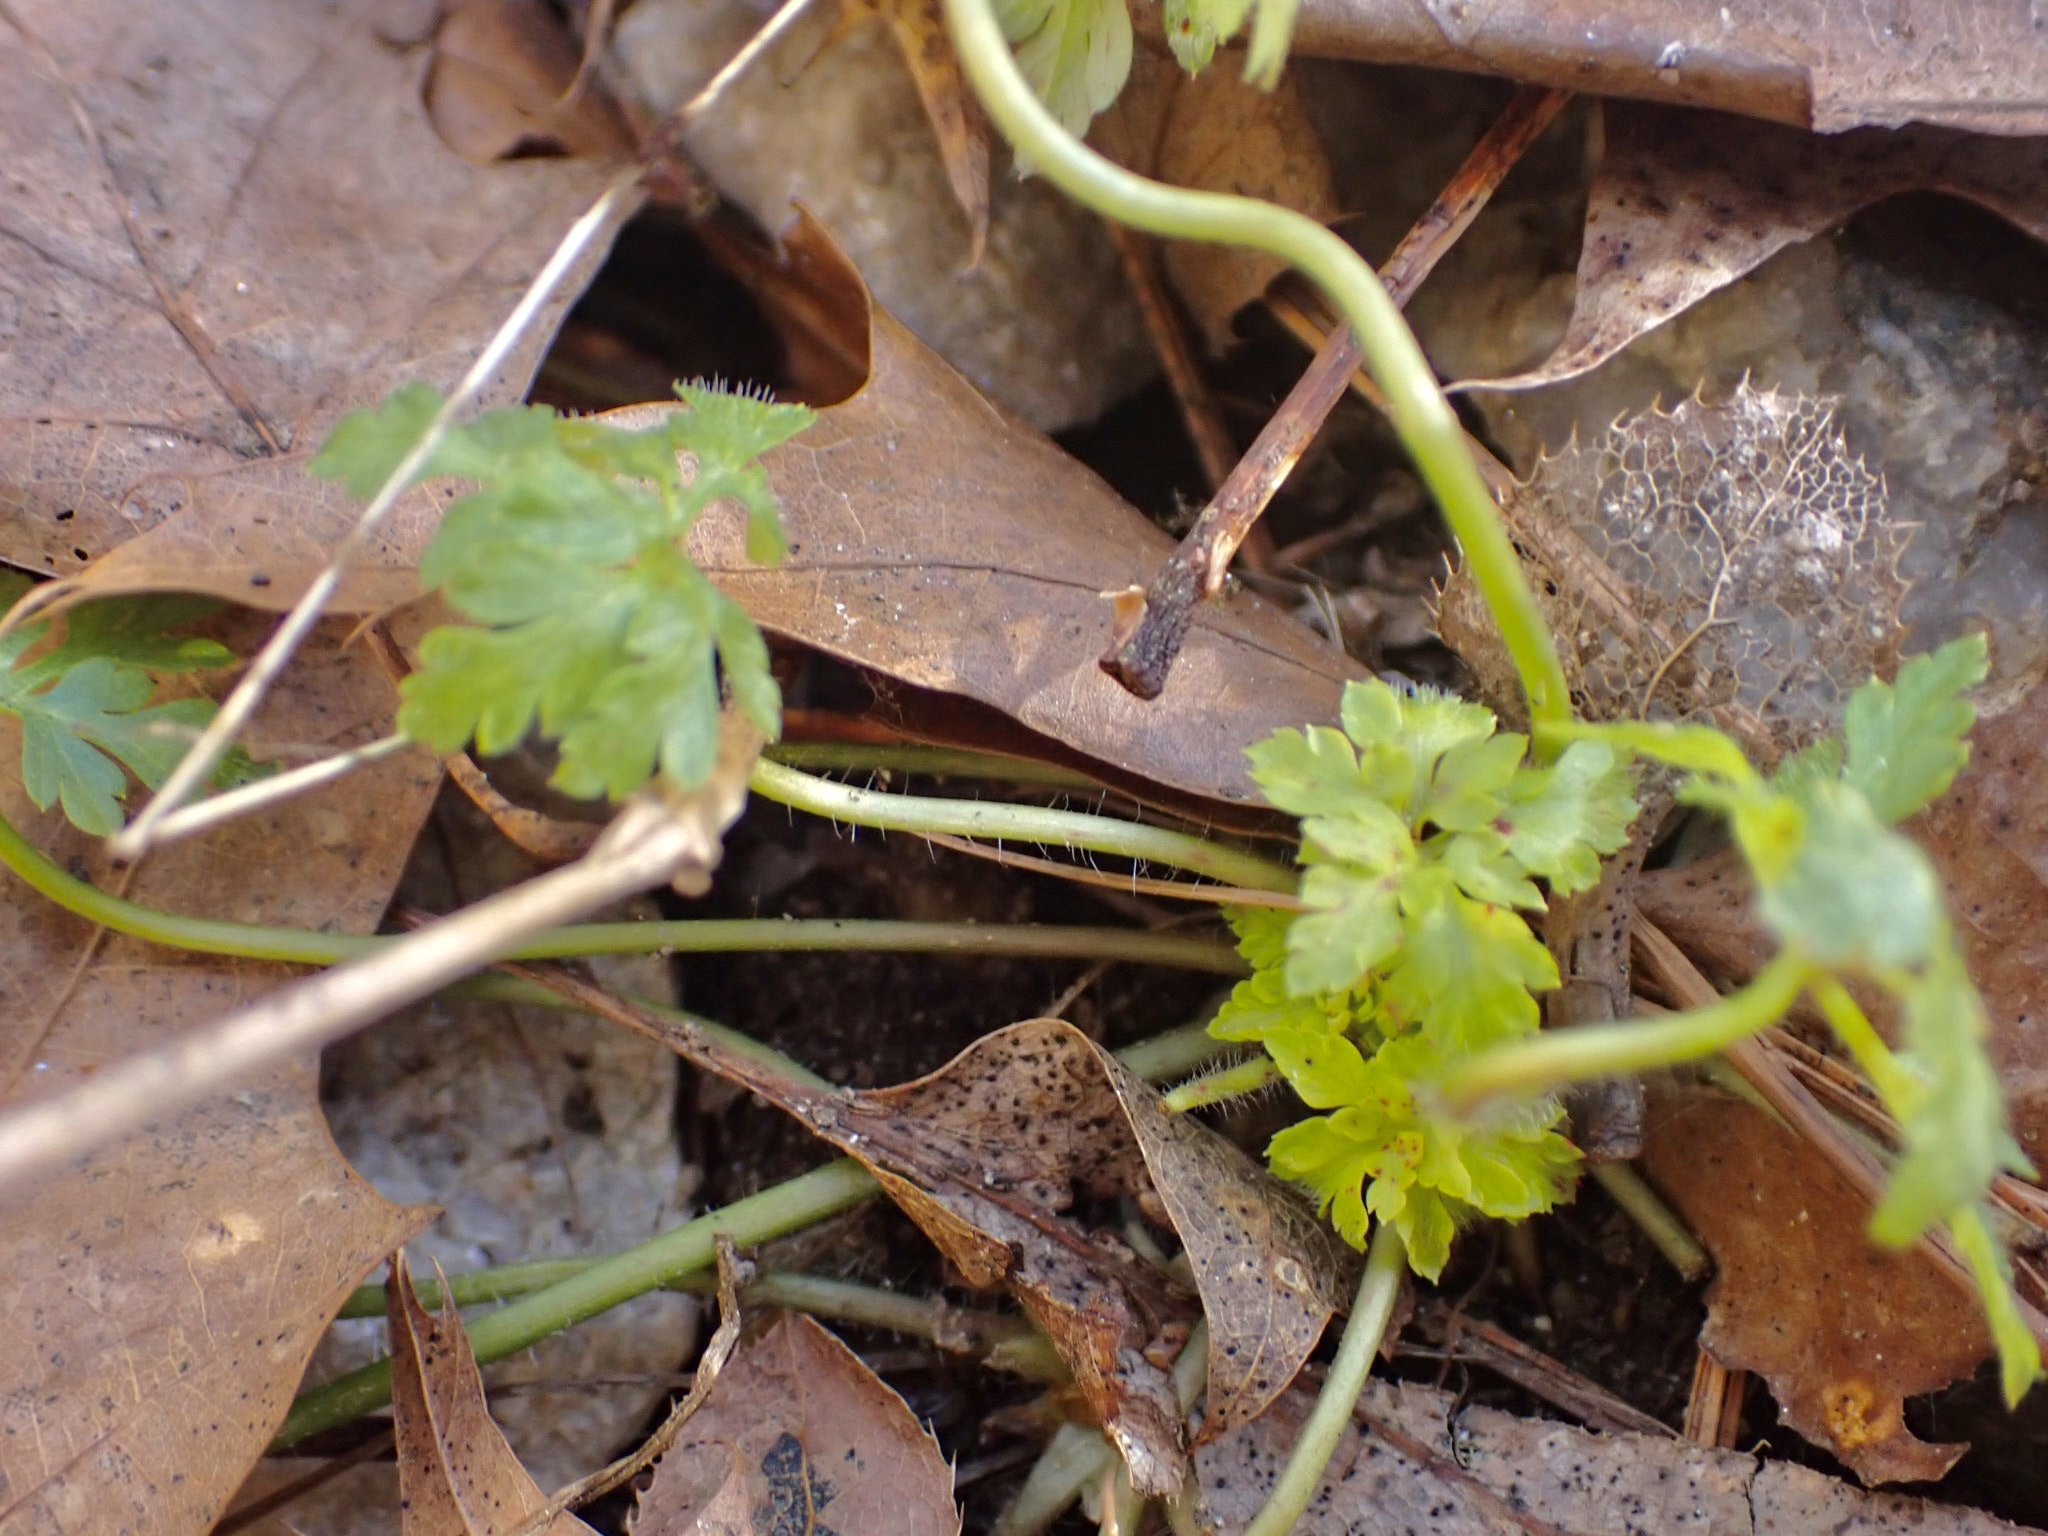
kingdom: Plantae
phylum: Tracheophyta
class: Magnoliopsida
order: Geraniales
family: Geraniaceae
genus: Geranium
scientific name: Geranium robertianum
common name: Herb-robert
